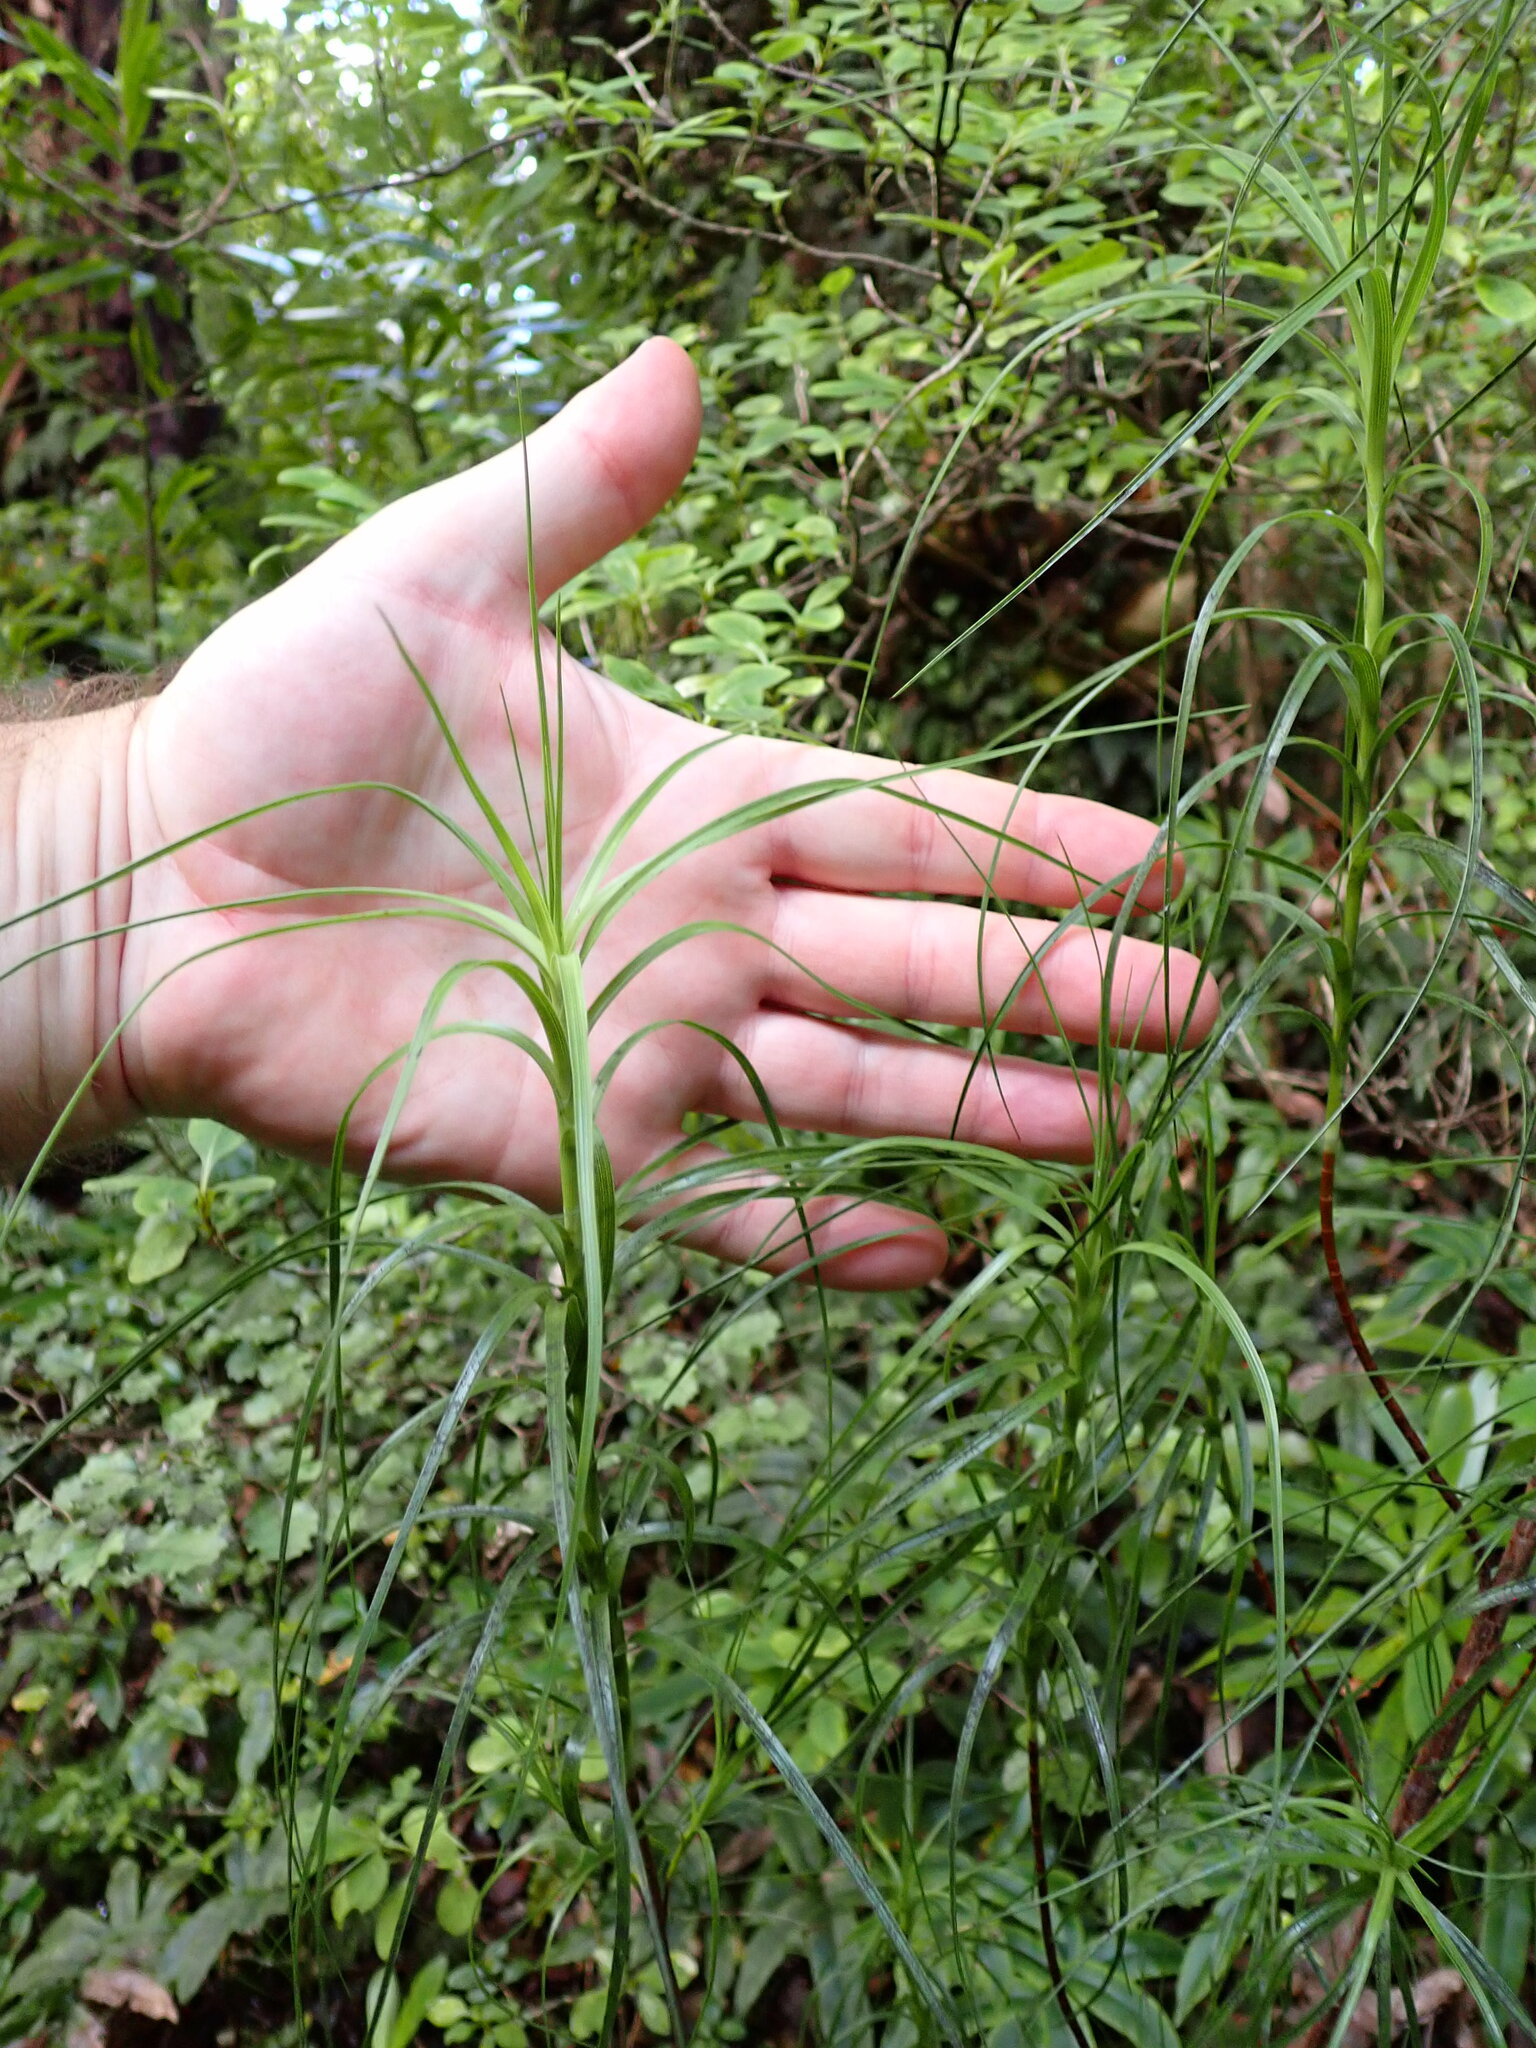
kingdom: Plantae
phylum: Tracheophyta
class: Magnoliopsida
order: Ericales
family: Ericaceae
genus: Dracophyllum
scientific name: Dracophyllum filifolium
